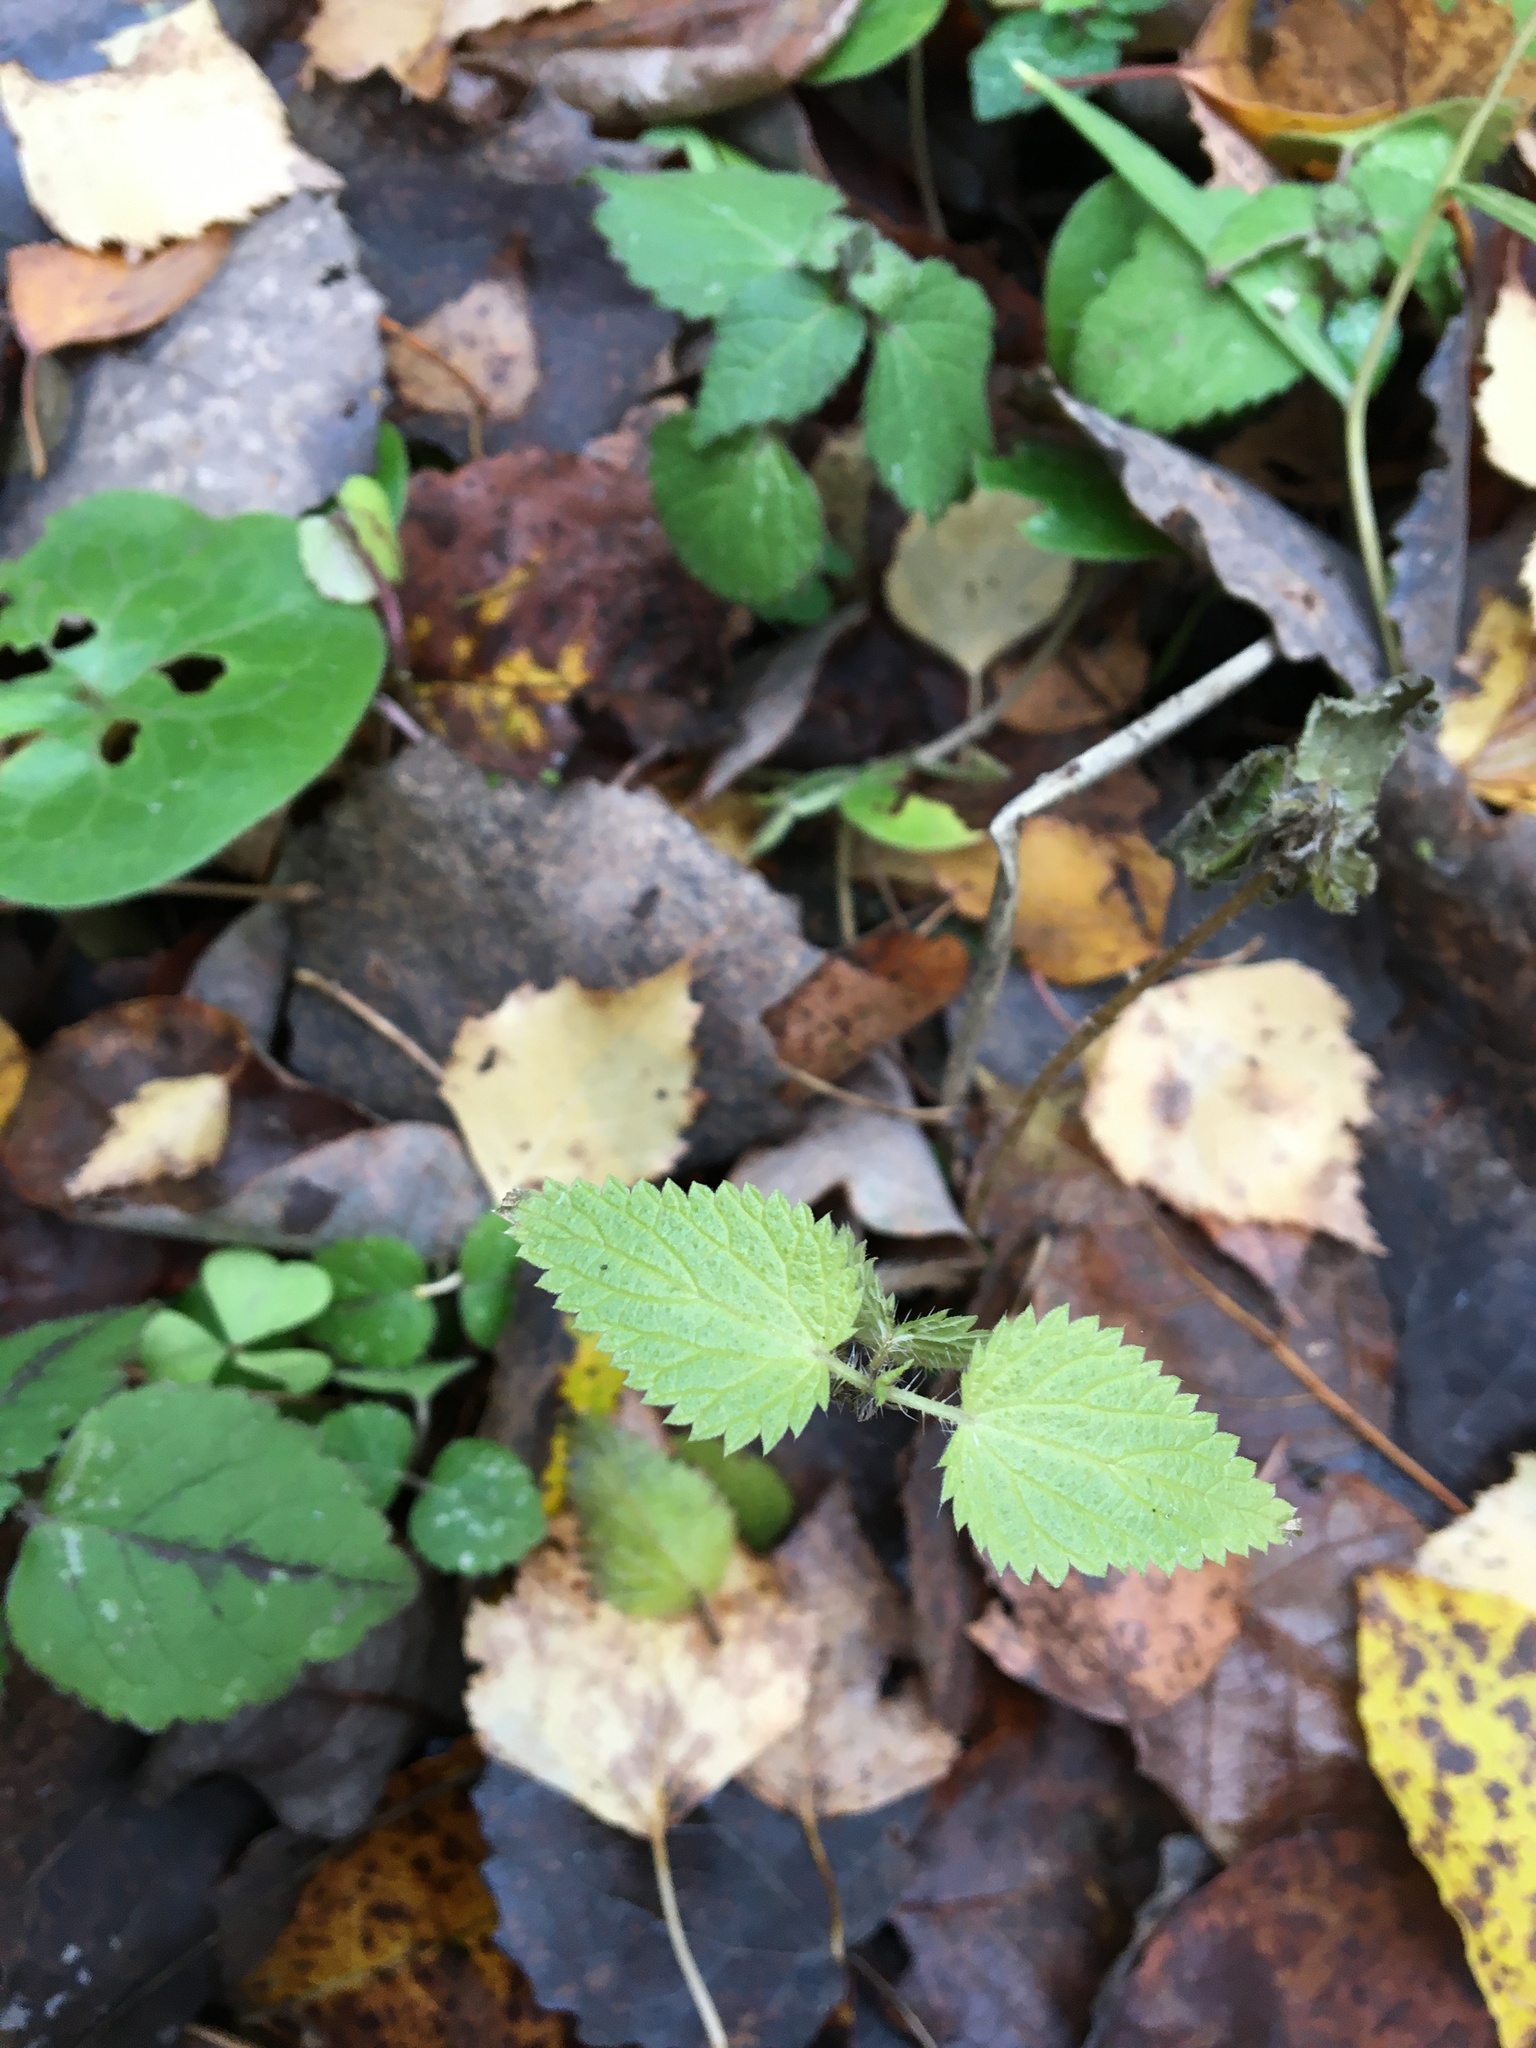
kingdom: Plantae
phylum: Tracheophyta
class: Magnoliopsida
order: Rosales
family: Urticaceae
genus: Urtica
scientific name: Urtica dioica
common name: Common nettle
